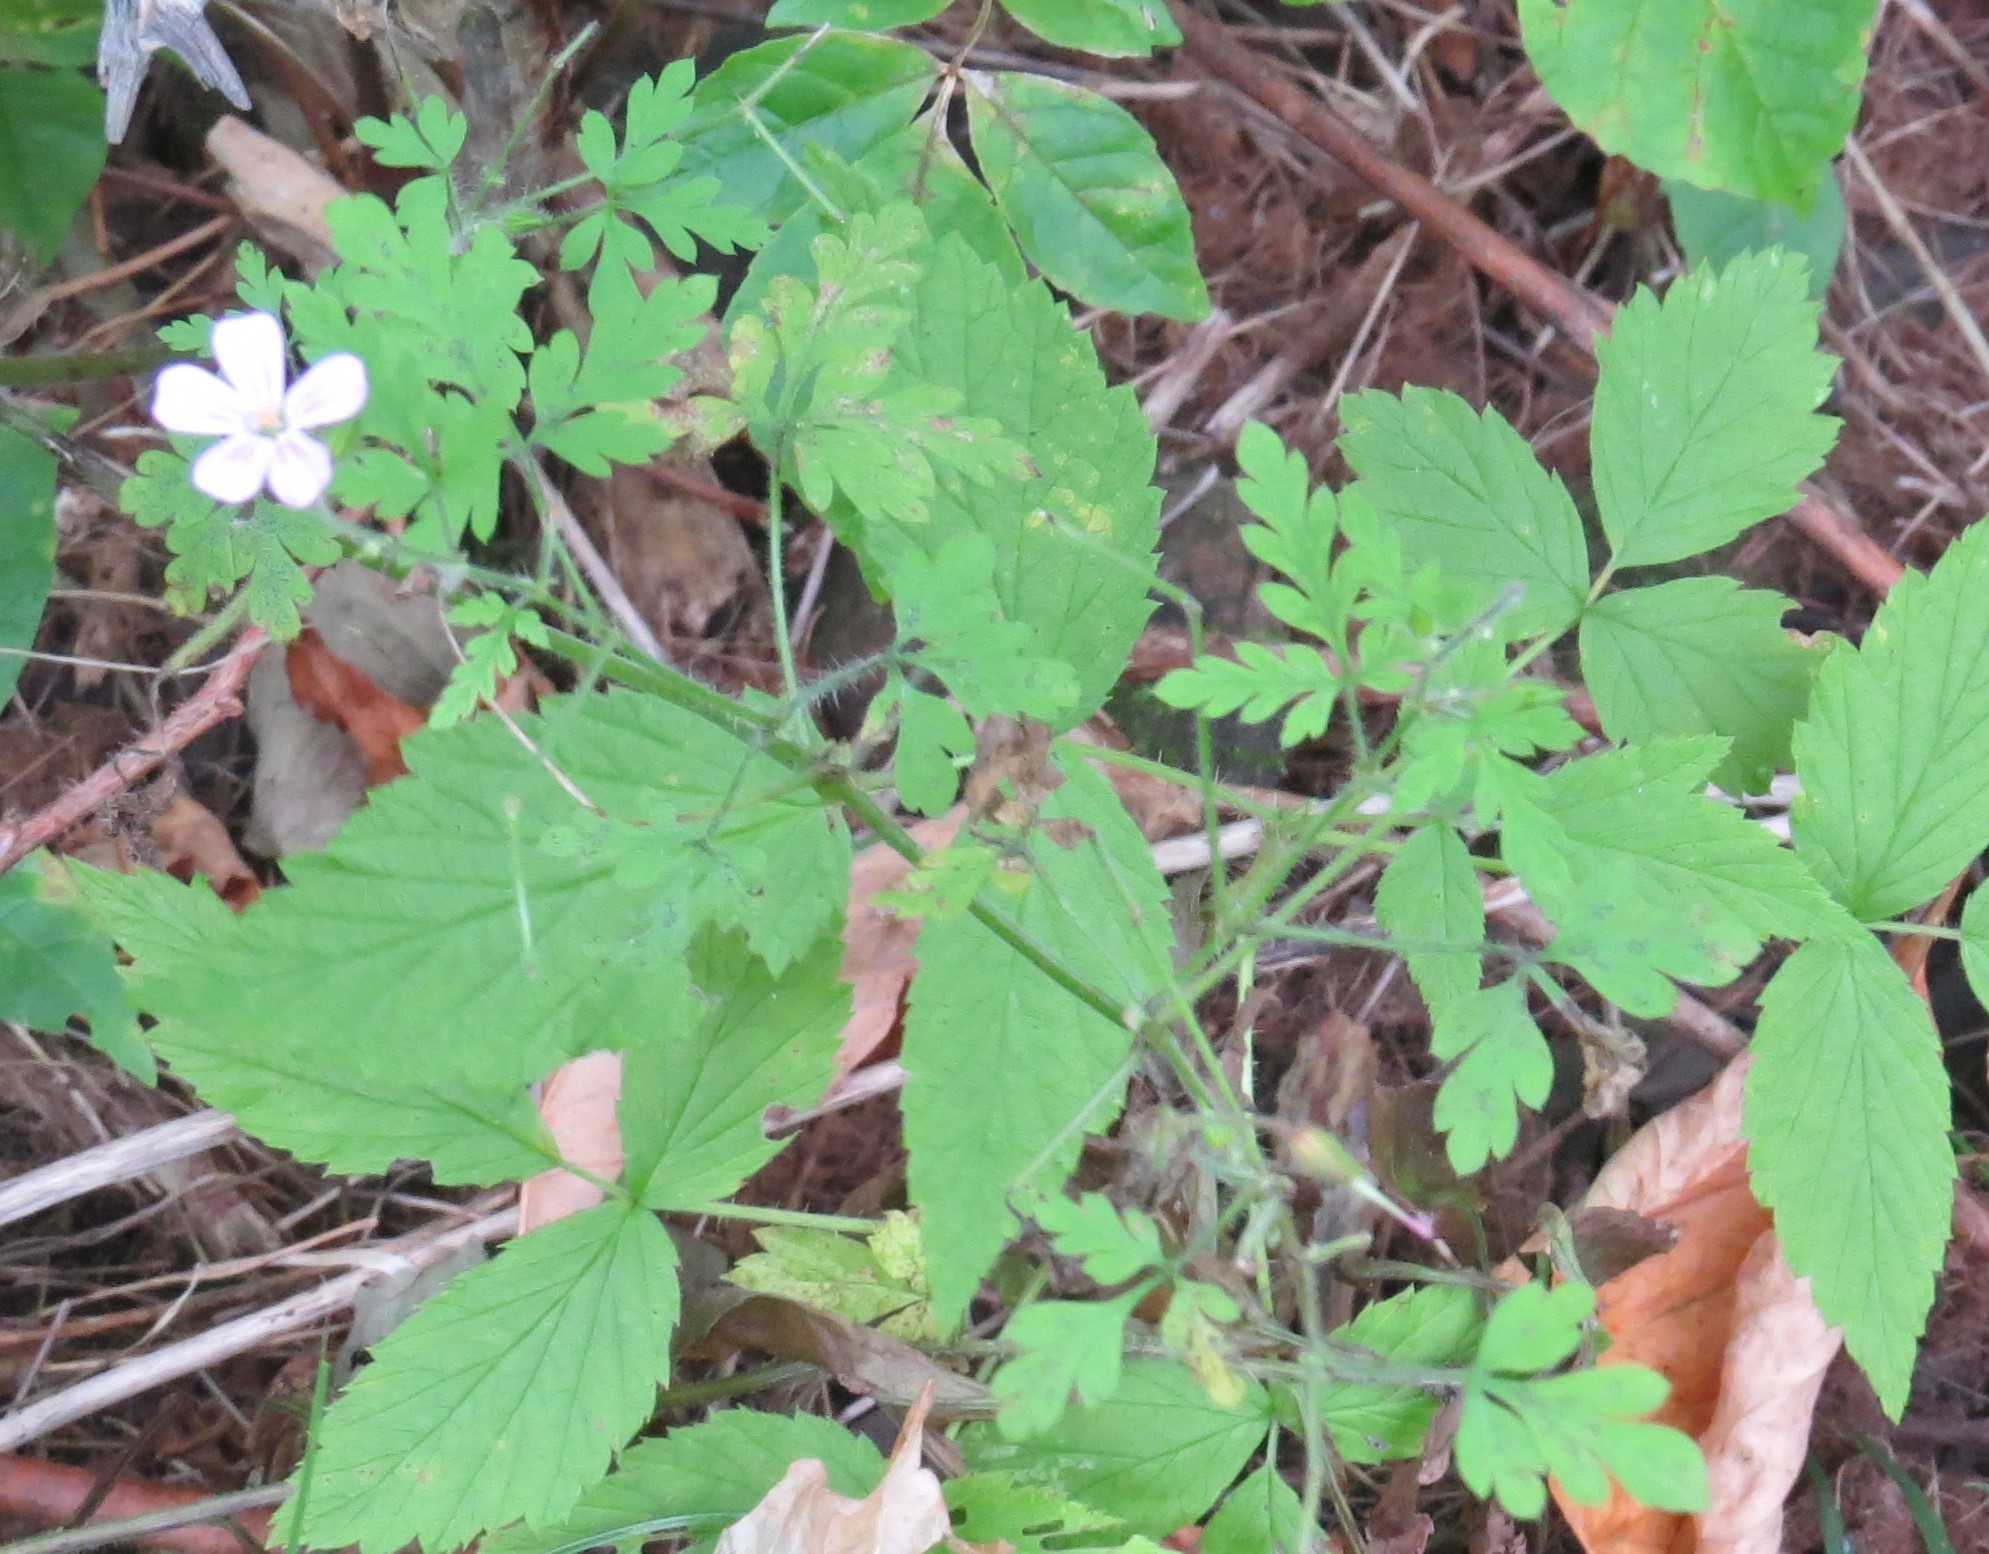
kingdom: Plantae
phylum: Tracheophyta
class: Magnoliopsida
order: Geraniales
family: Geraniaceae
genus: Geranium
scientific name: Geranium robertianum
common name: Herb-robert
